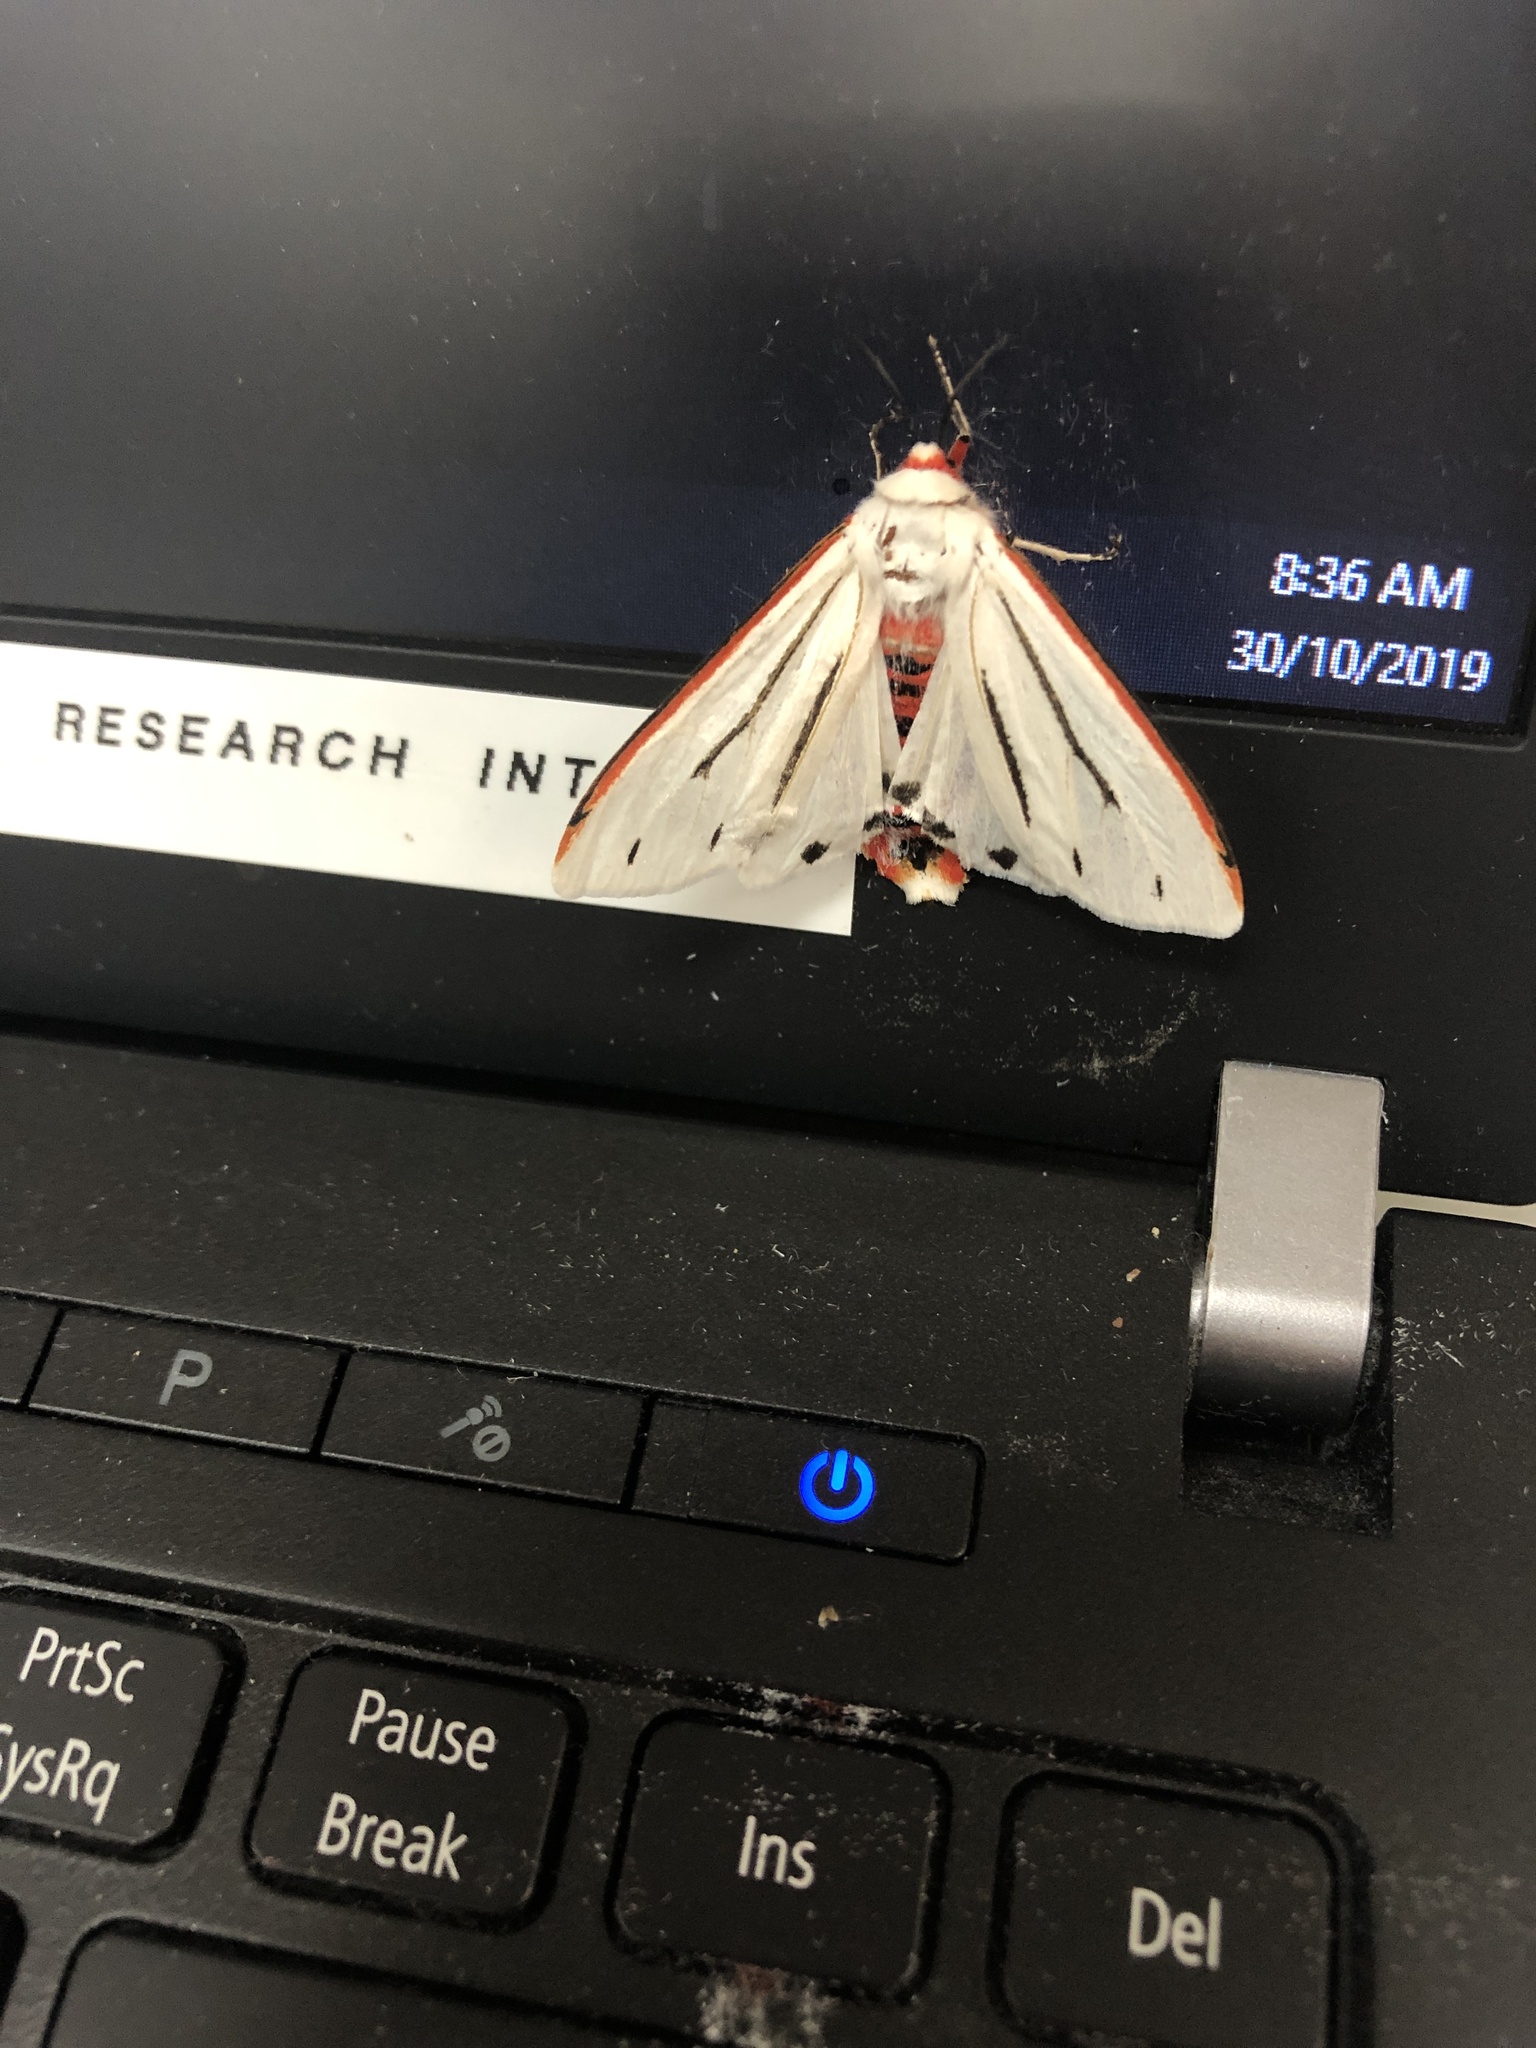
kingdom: Animalia
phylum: Arthropoda
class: Insecta
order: Lepidoptera
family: Erebidae
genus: Aloa
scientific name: Aloa marginata
